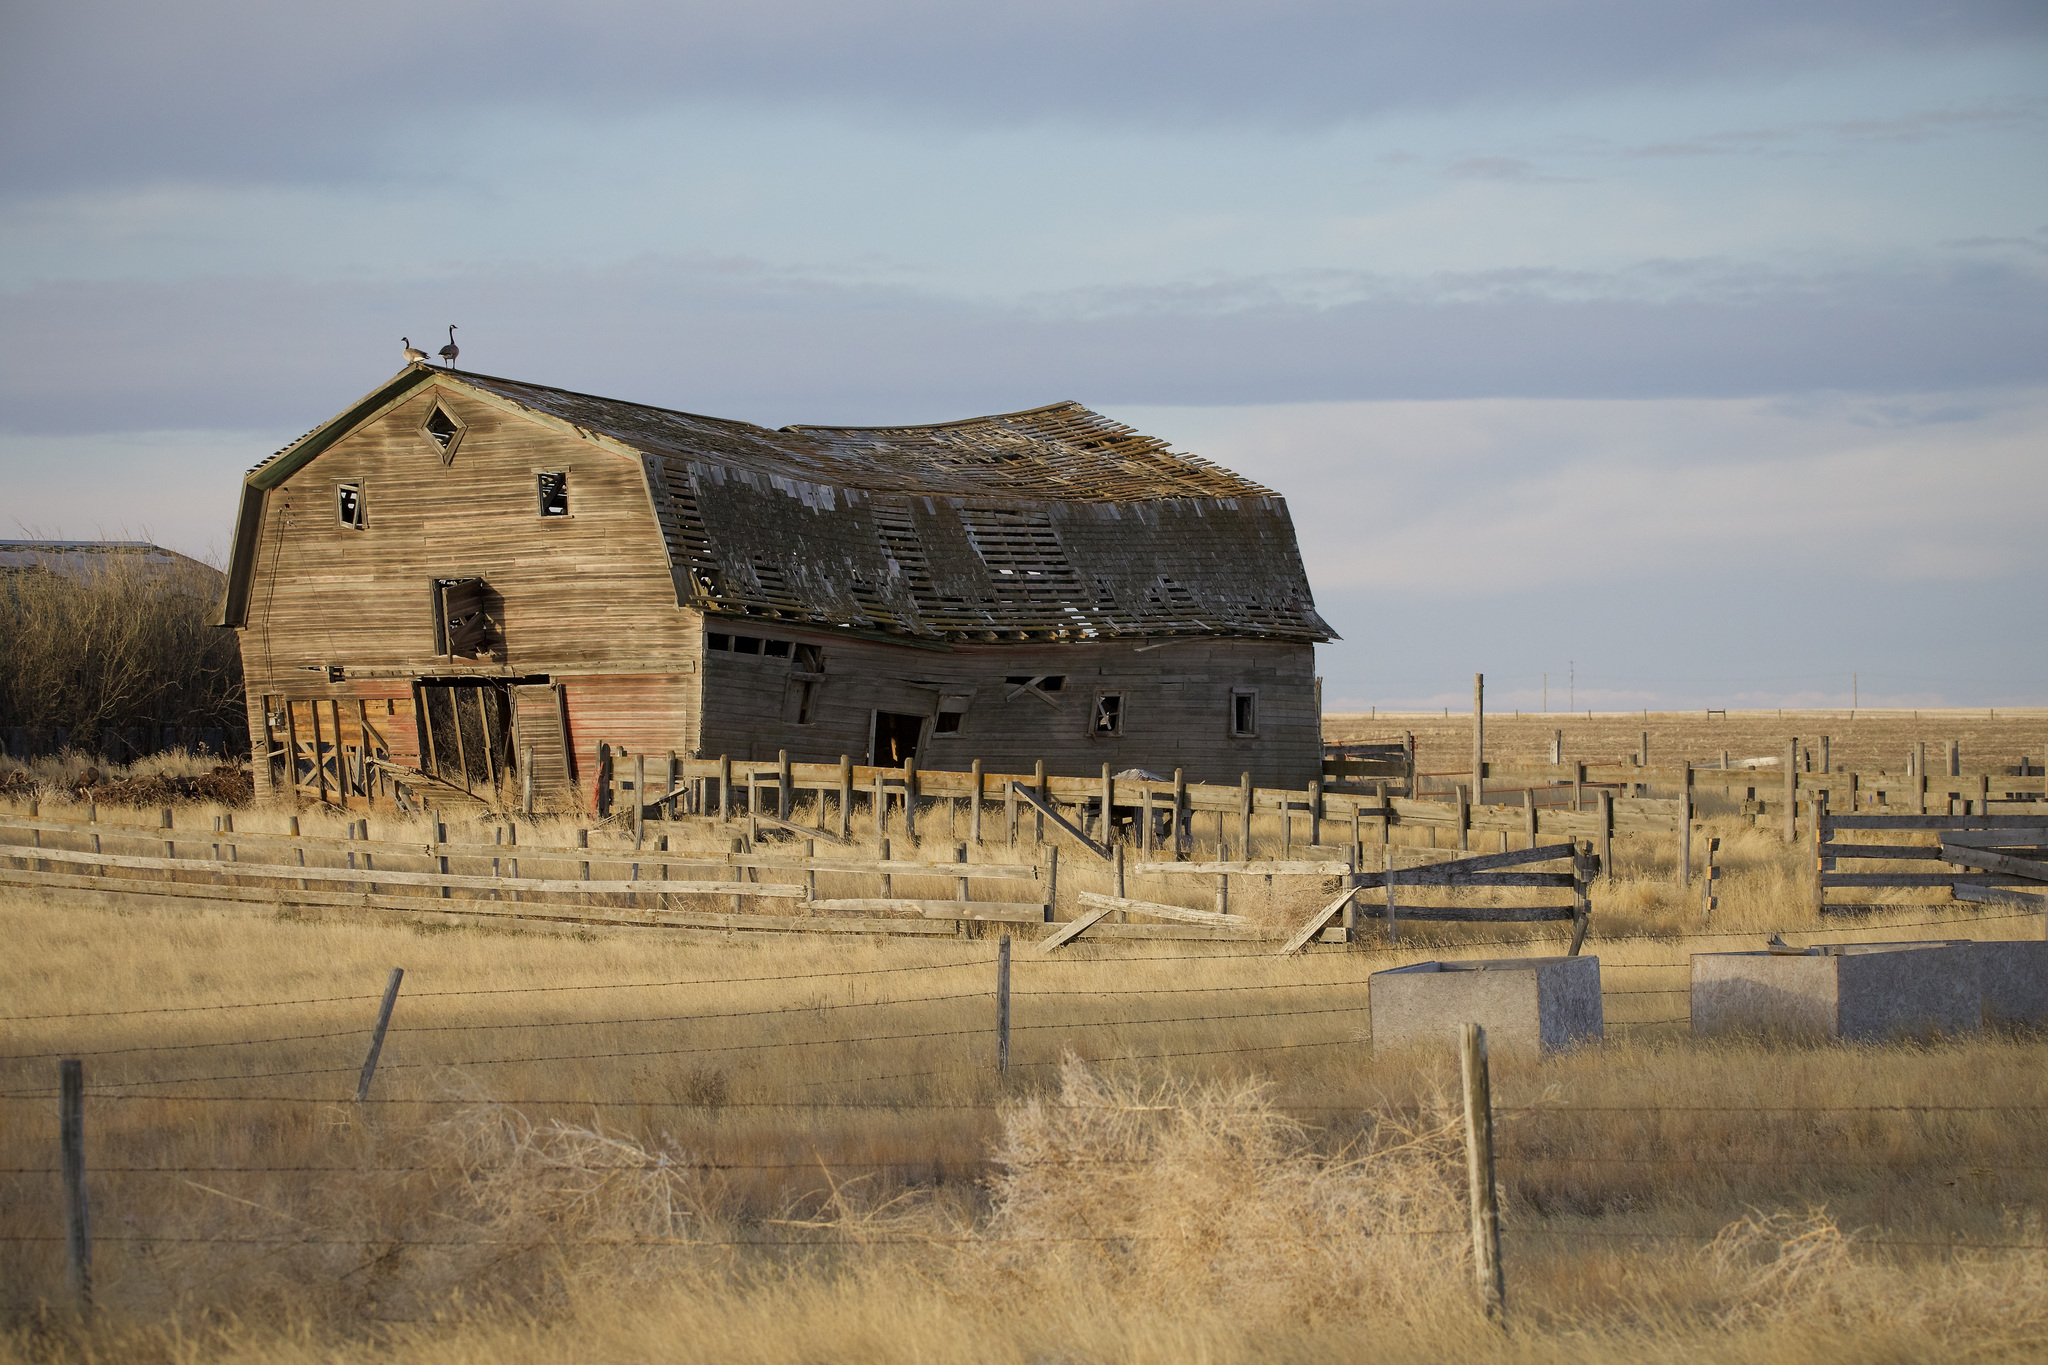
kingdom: Animalia
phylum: Chordata
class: Aves
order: Anseriformes
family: Anatidae
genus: Branta
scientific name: Branta canadensis
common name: Canada goose
